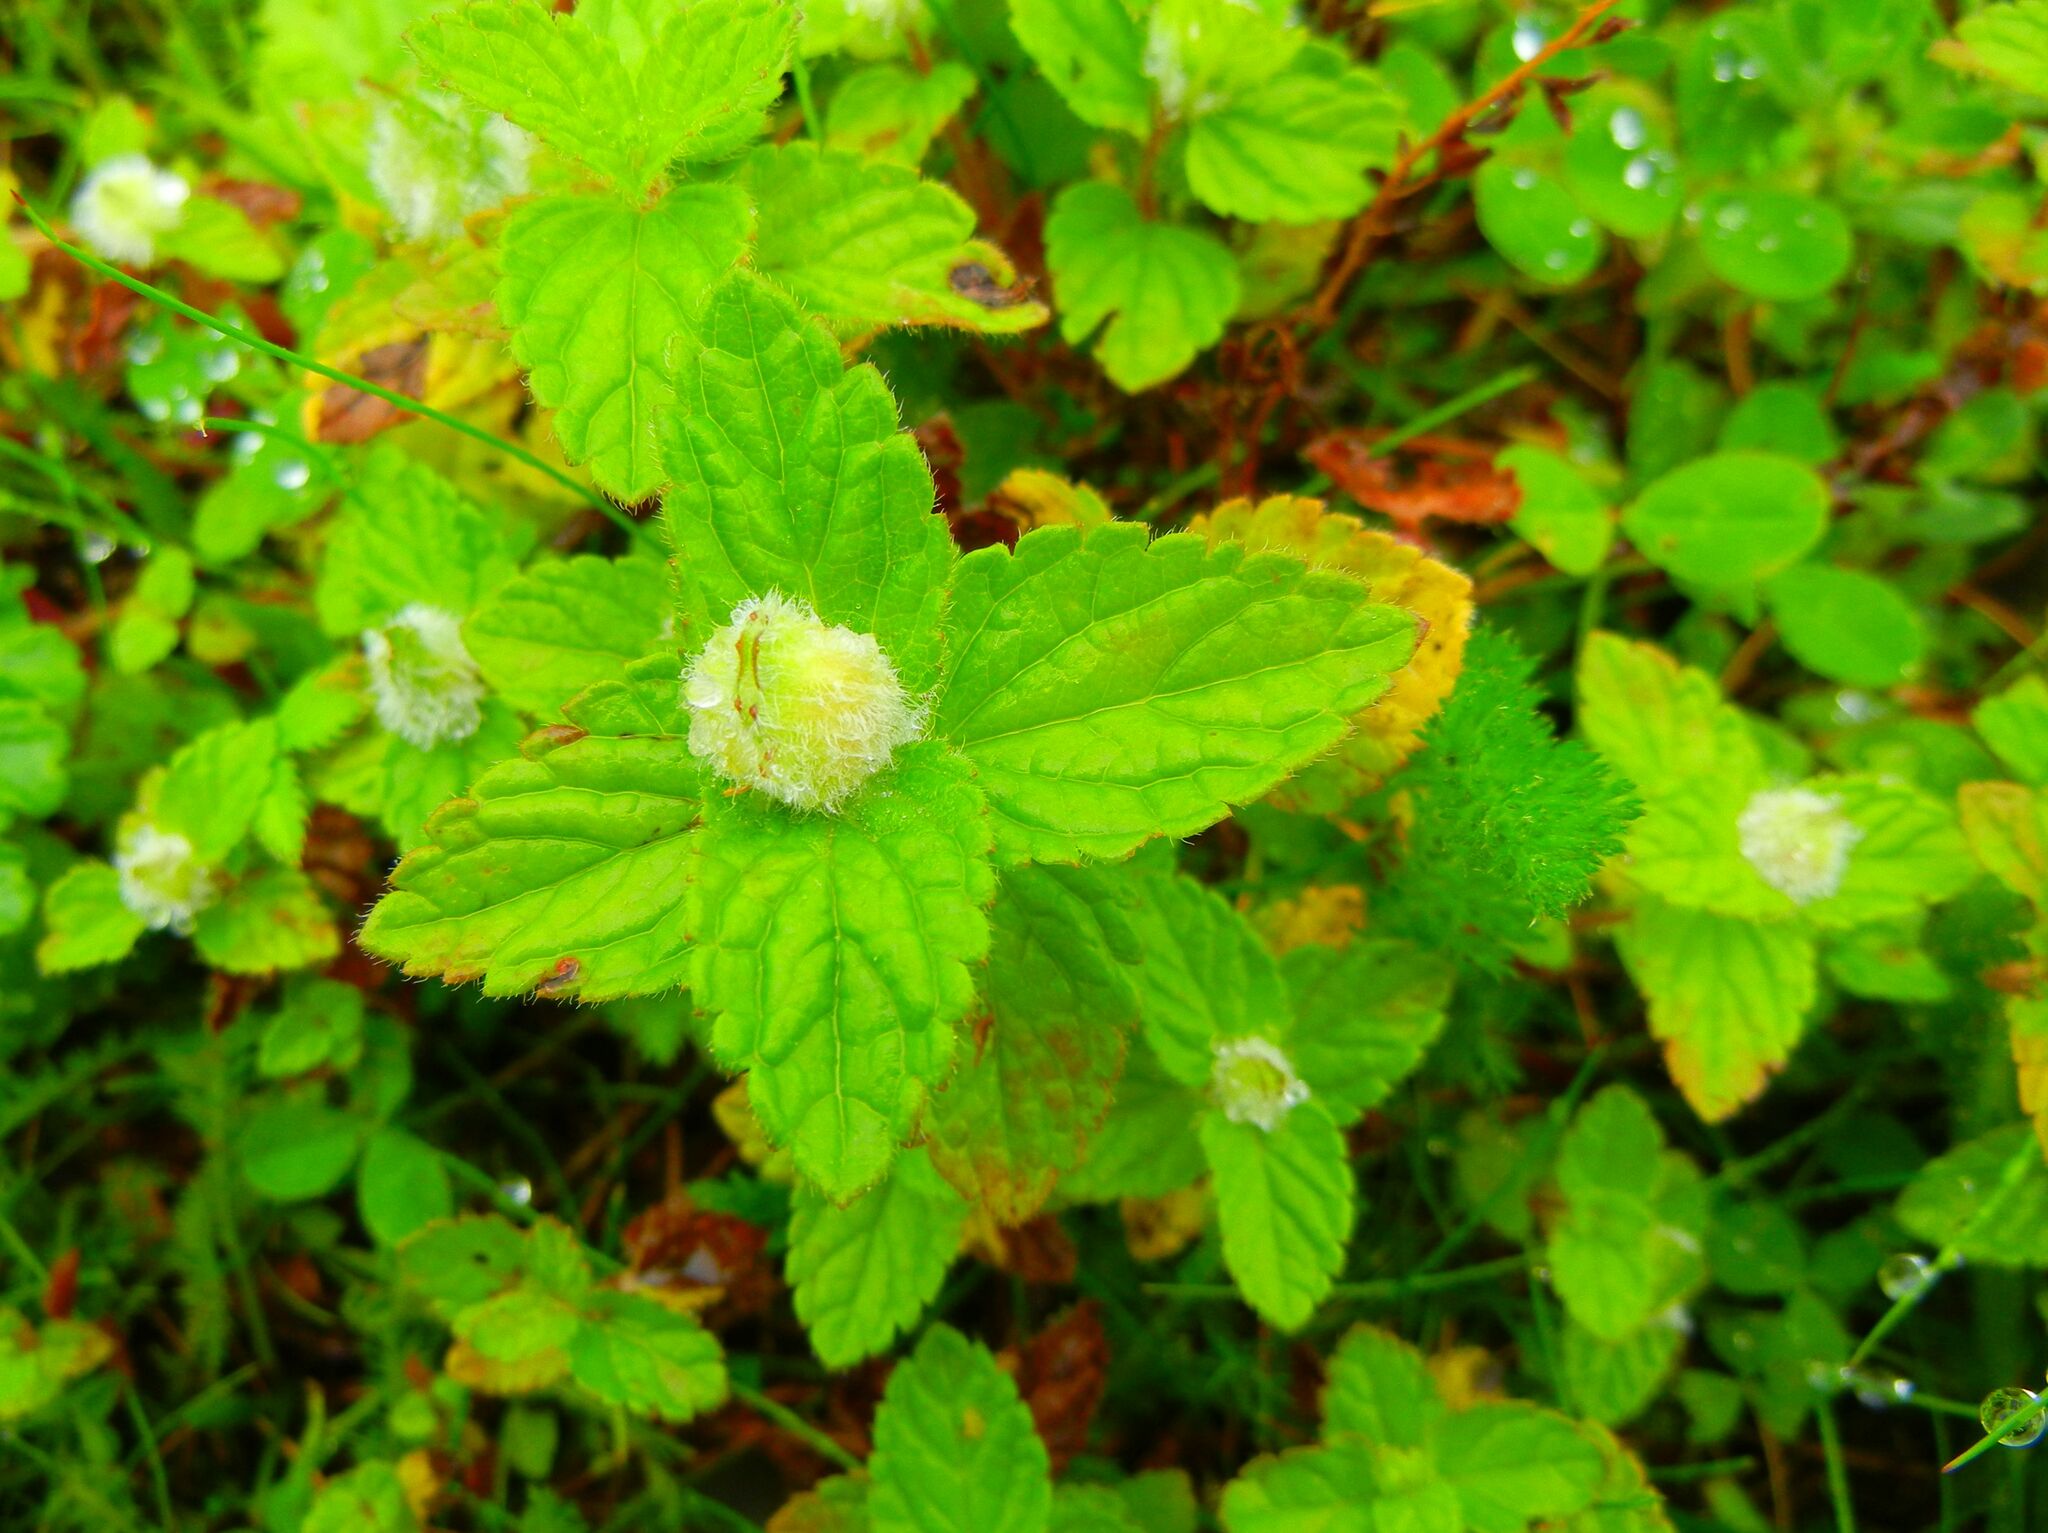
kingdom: Animalia
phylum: Arthropoda
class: Insecta
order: Diptera
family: Cecidomyiidae
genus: Jaapiella
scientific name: Jaapiella veronicae
